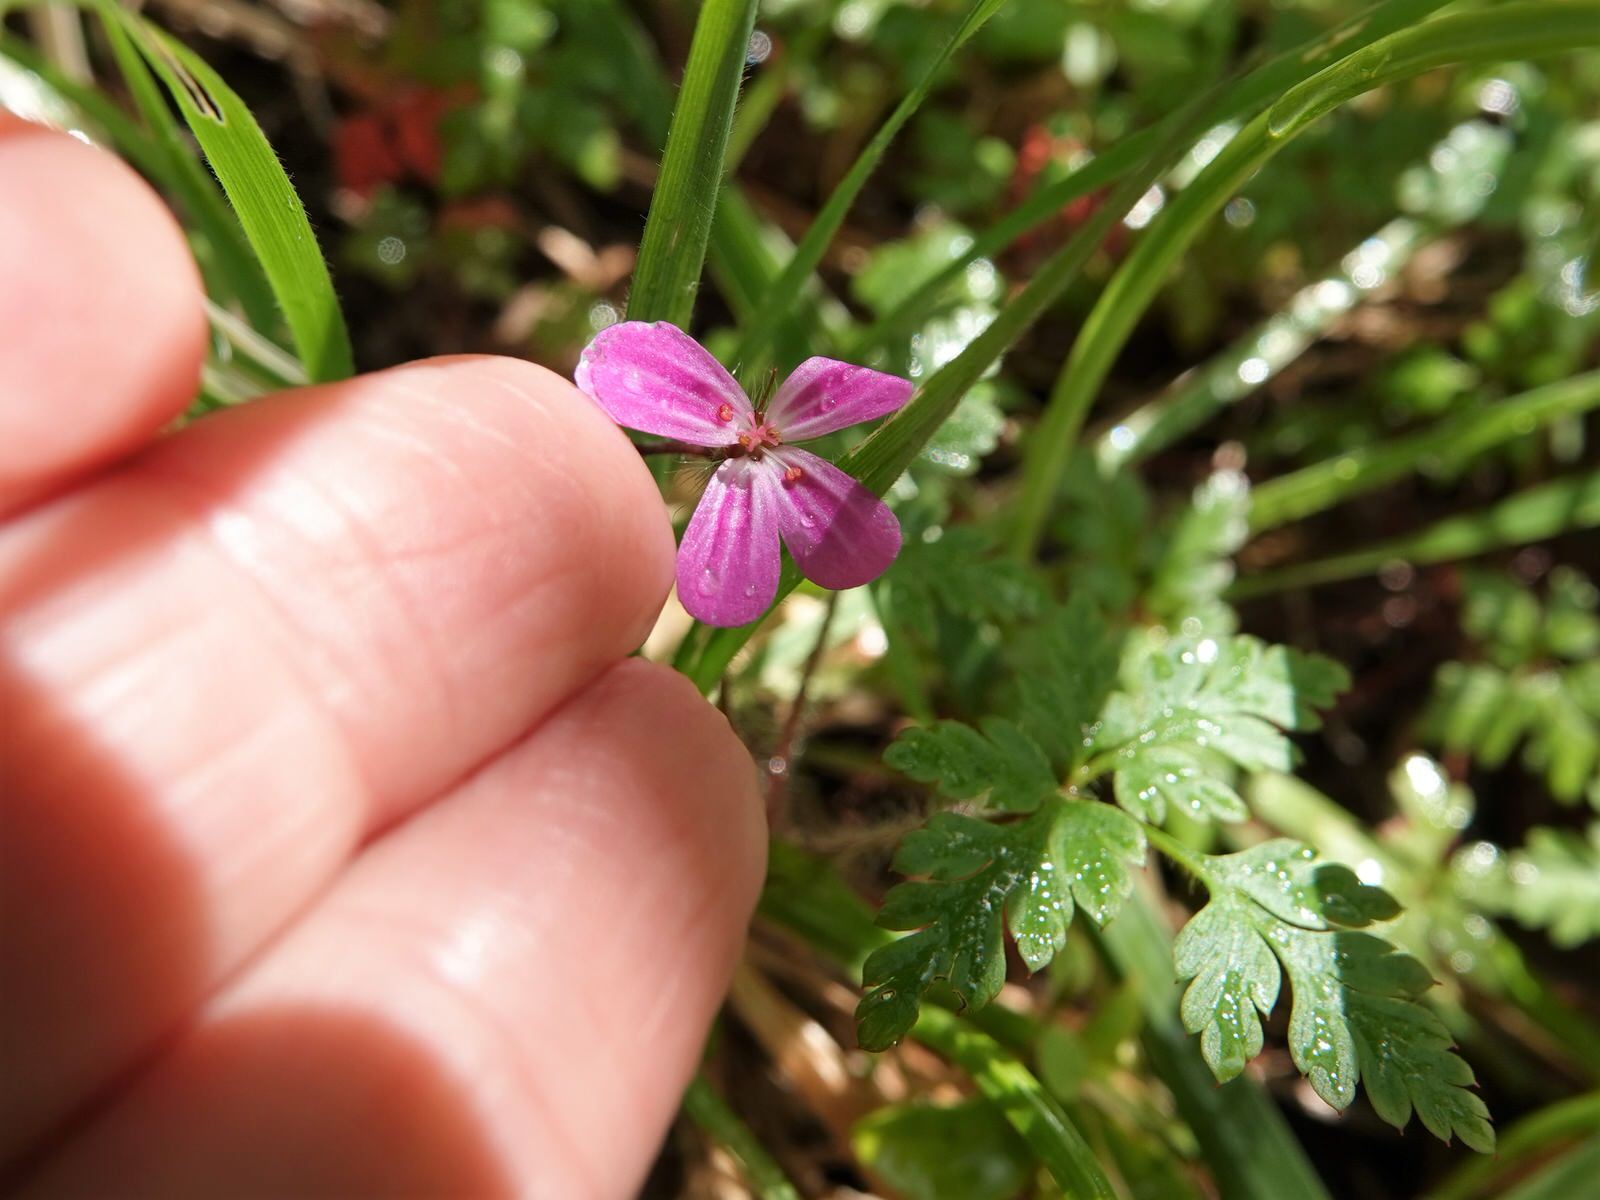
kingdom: Plantae
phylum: Tracheophyta
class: Magnoliopsida
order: Geraniales
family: Geraniaceae
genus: Geranium
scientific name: Geranium robertianum
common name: Herb-robert
